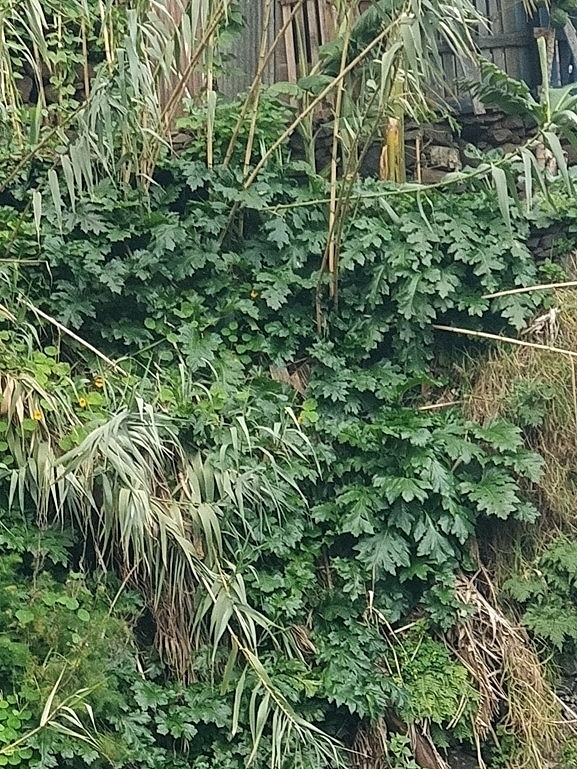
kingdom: Plantae
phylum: Tracheophyta
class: Magnoliopsida
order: Lamiales
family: Acanthaceae
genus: Acanthus
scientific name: Acanthus mollis
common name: Bear's-breech
